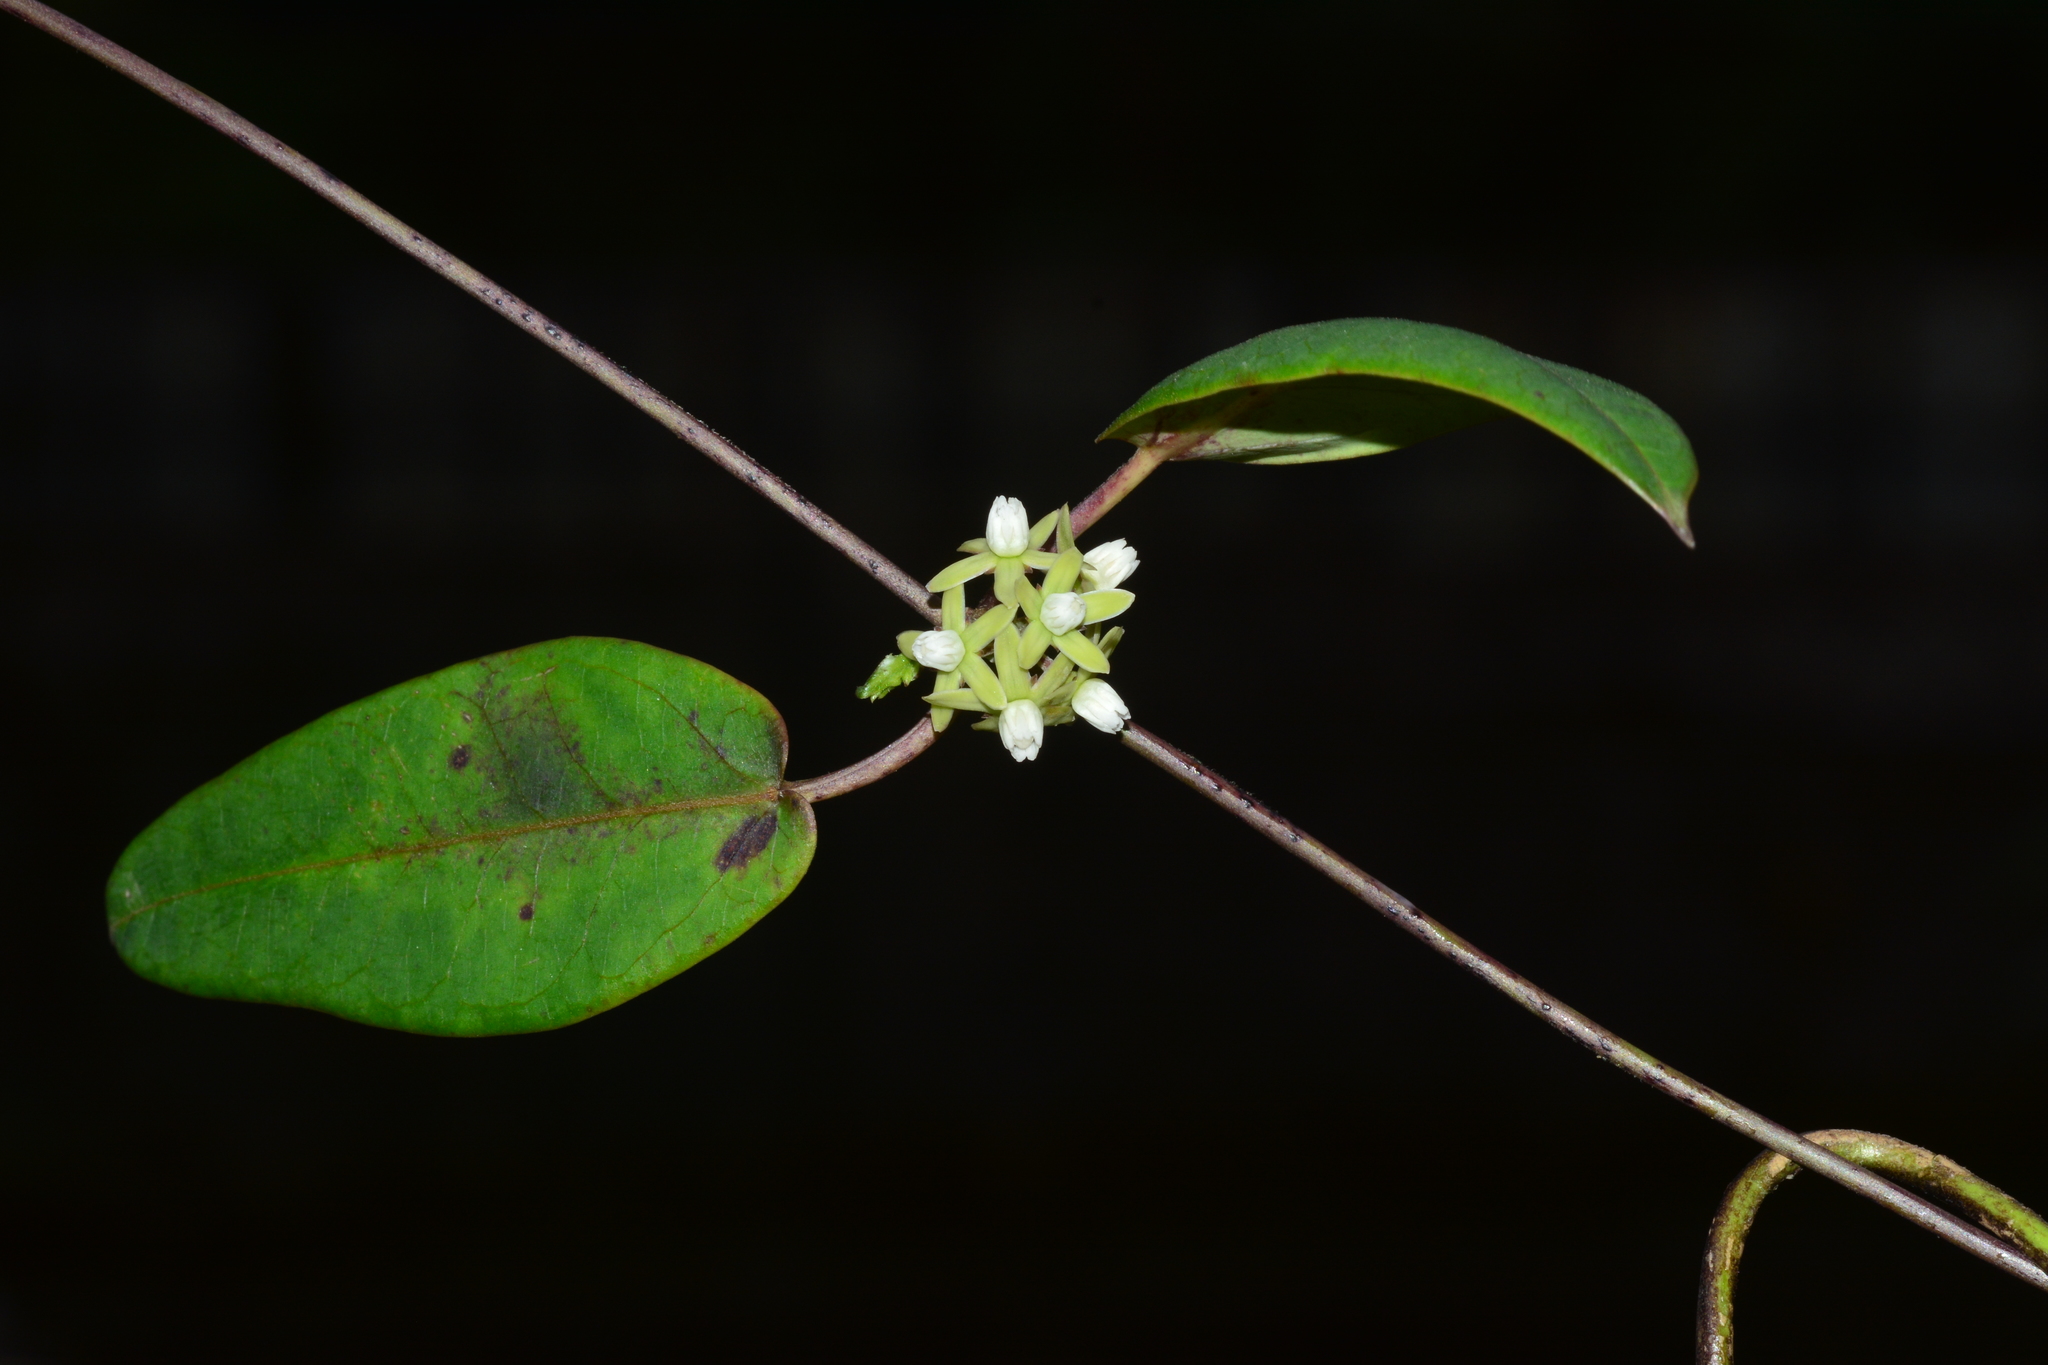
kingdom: Plantae
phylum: Tracheophyta
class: Magnoliopsida
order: Gentianales
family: Apocynaceae
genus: Cynanchum
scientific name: Cynanchum tunicatum
